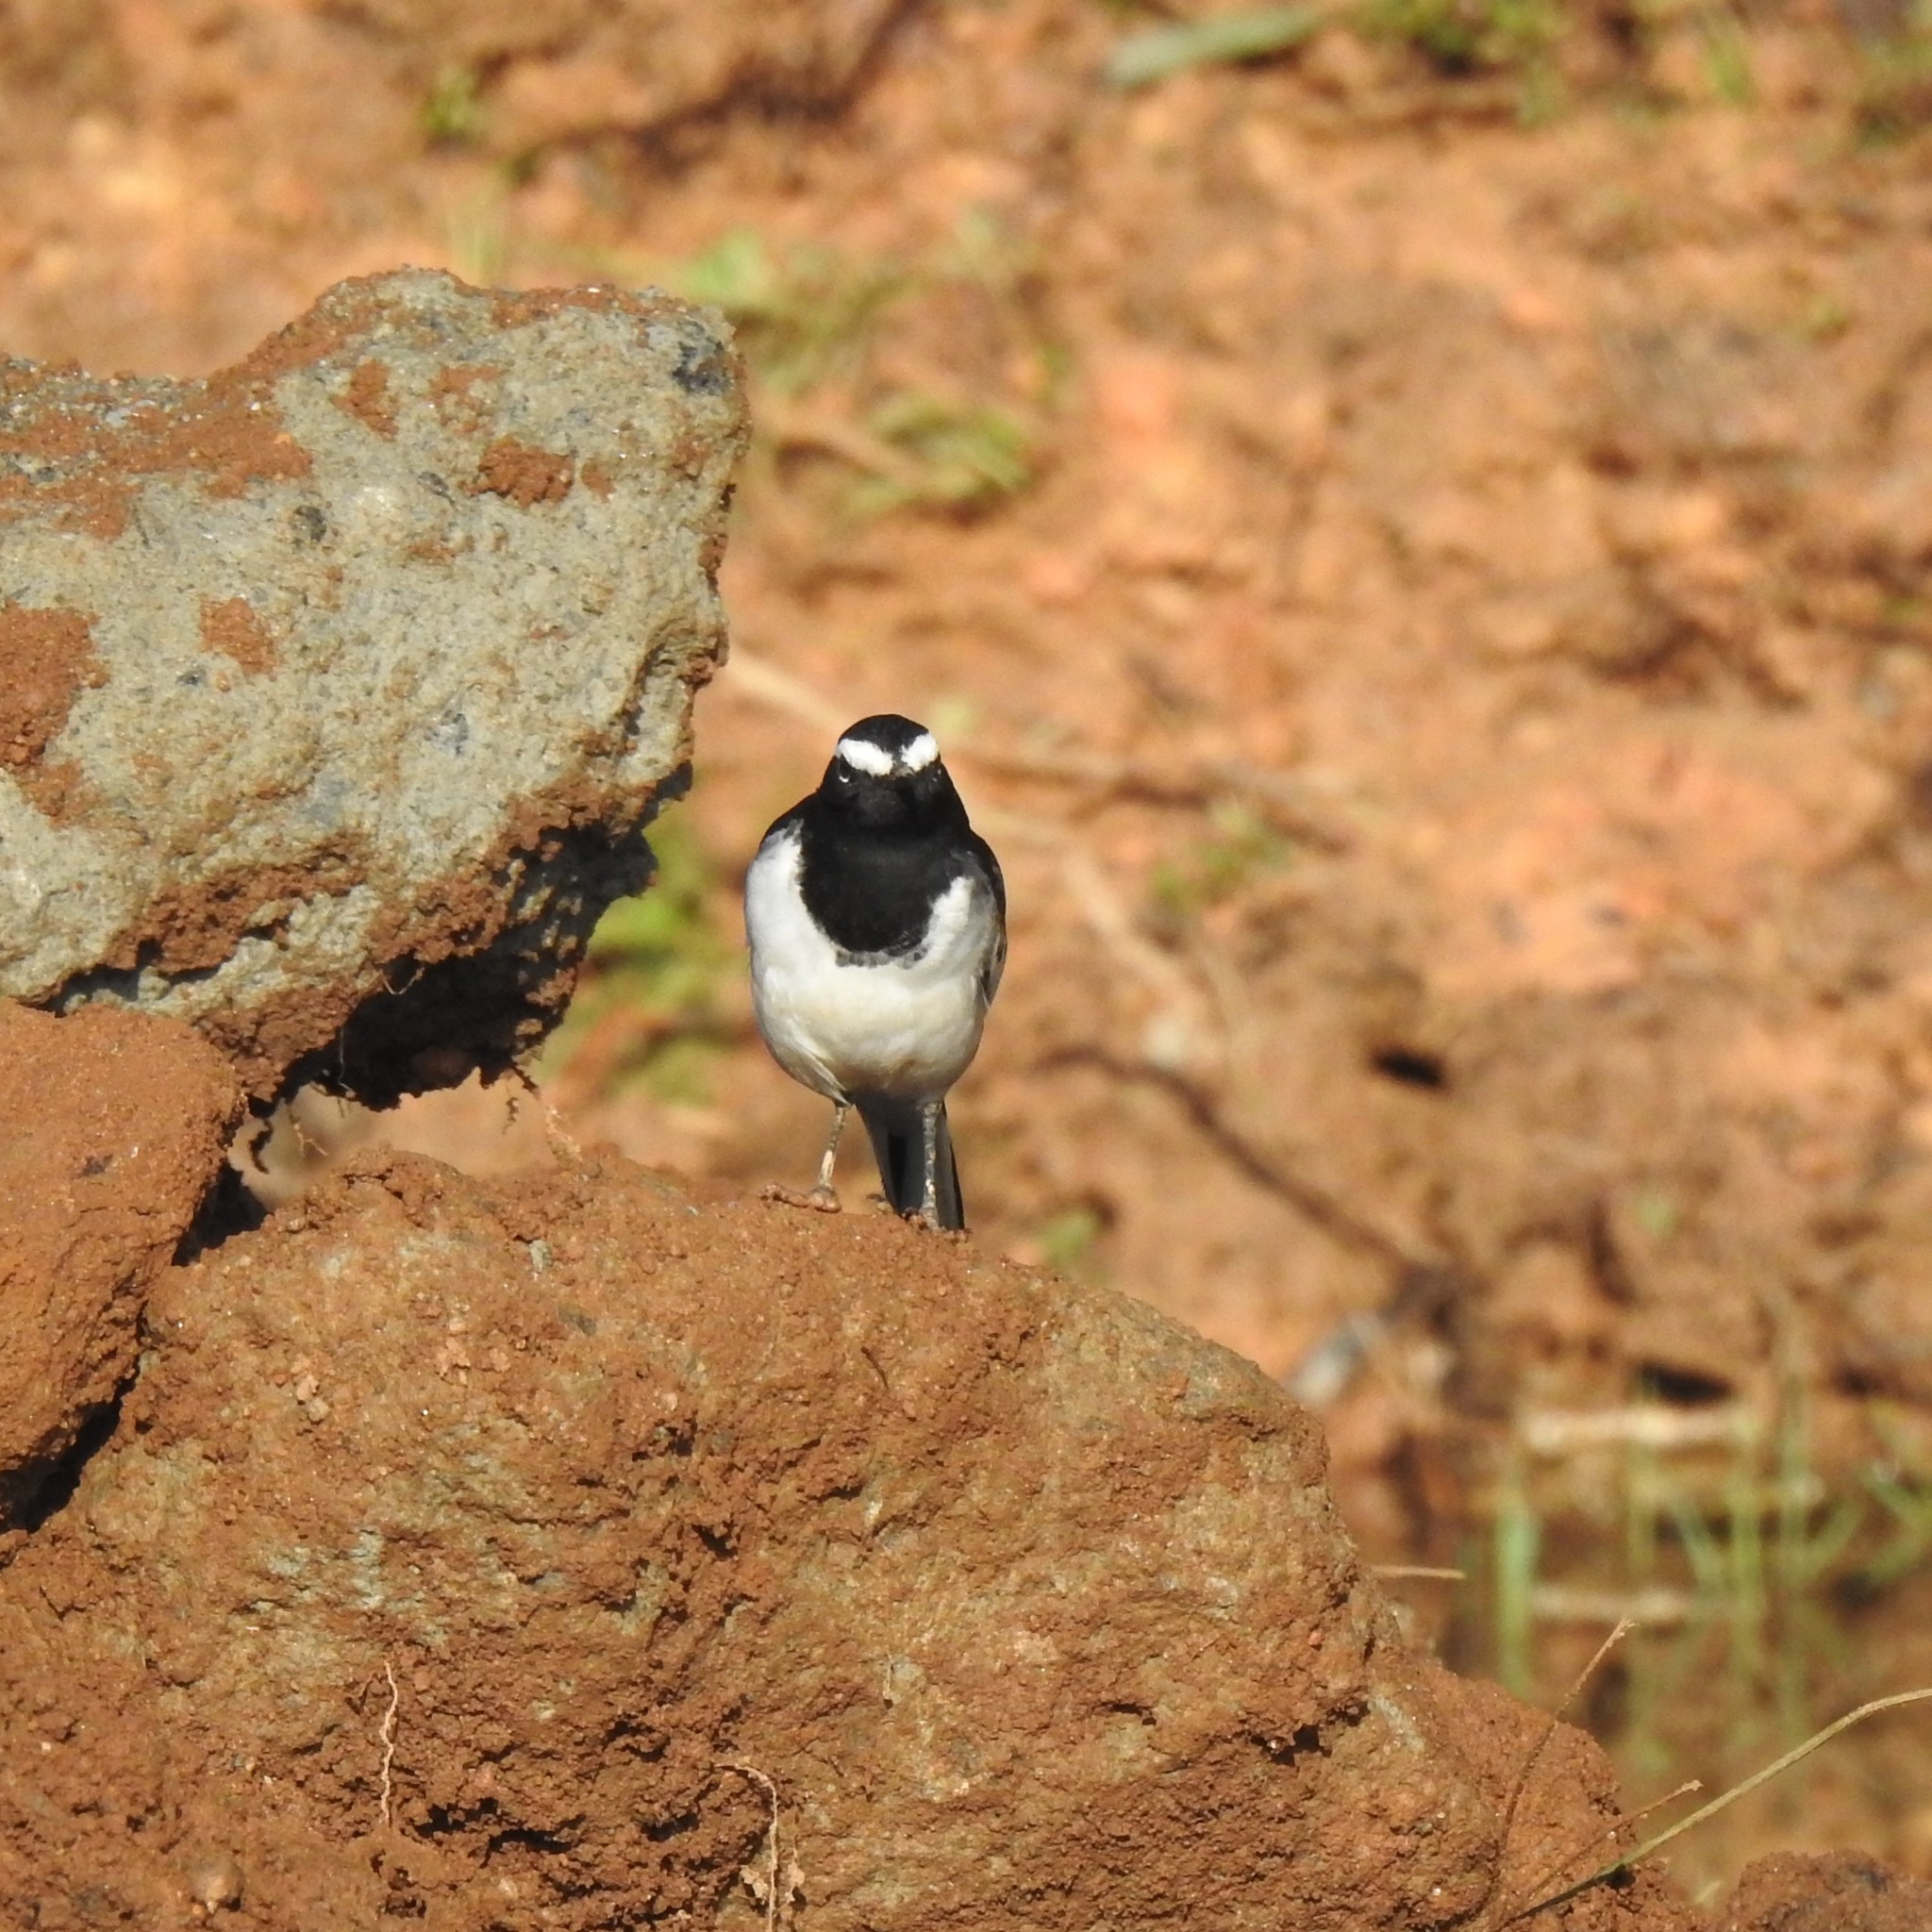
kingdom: Animalia
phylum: Chordata
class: Aves
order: Passeriformes
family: Motacillidae
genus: Motacilla
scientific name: Motacilla maderaspatensis
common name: White-browed wagtail
